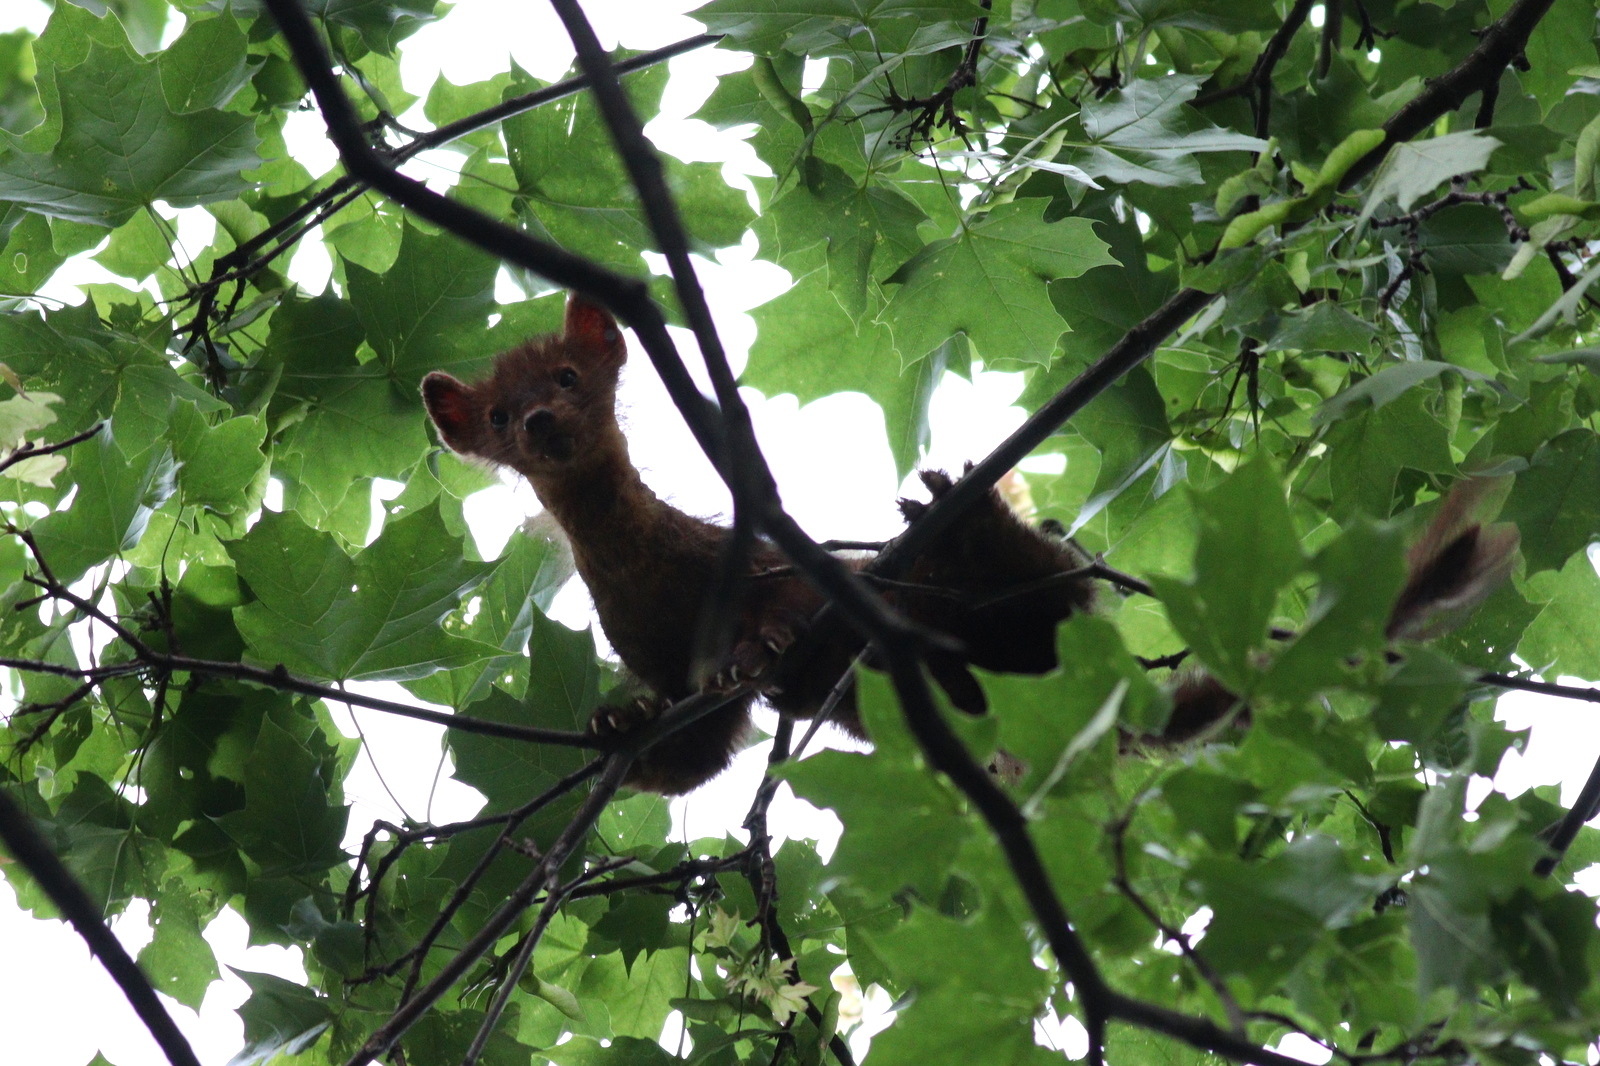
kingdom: Animalia
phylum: Chordata
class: Mammalia
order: Carnivora
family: Mustelidae
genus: Martes
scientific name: Martes martes
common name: European pine marten
